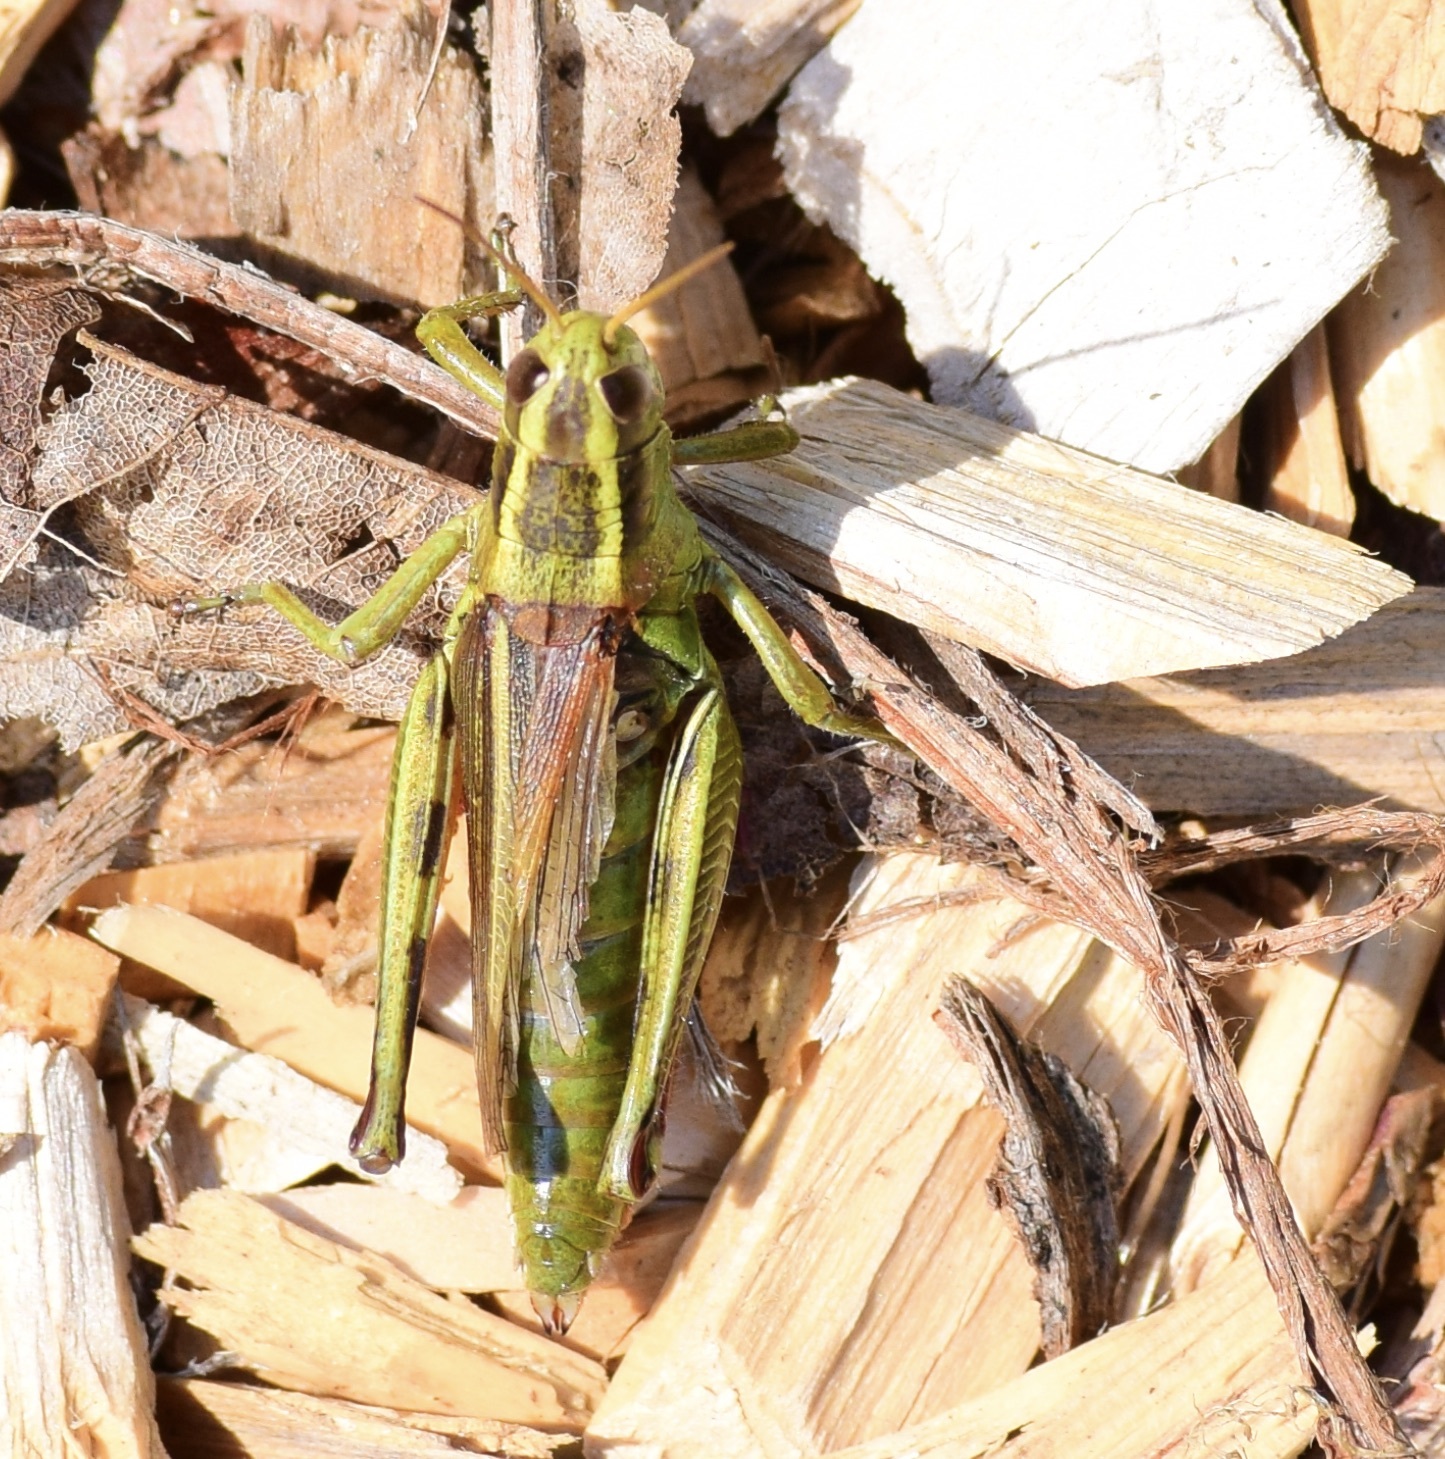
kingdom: Animalia
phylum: Arthropoda
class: Insecta
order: Orthoptera
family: Acrididae
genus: Melanoplus
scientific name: Melanoplus bivittatus
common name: Two-striped grasshopper
